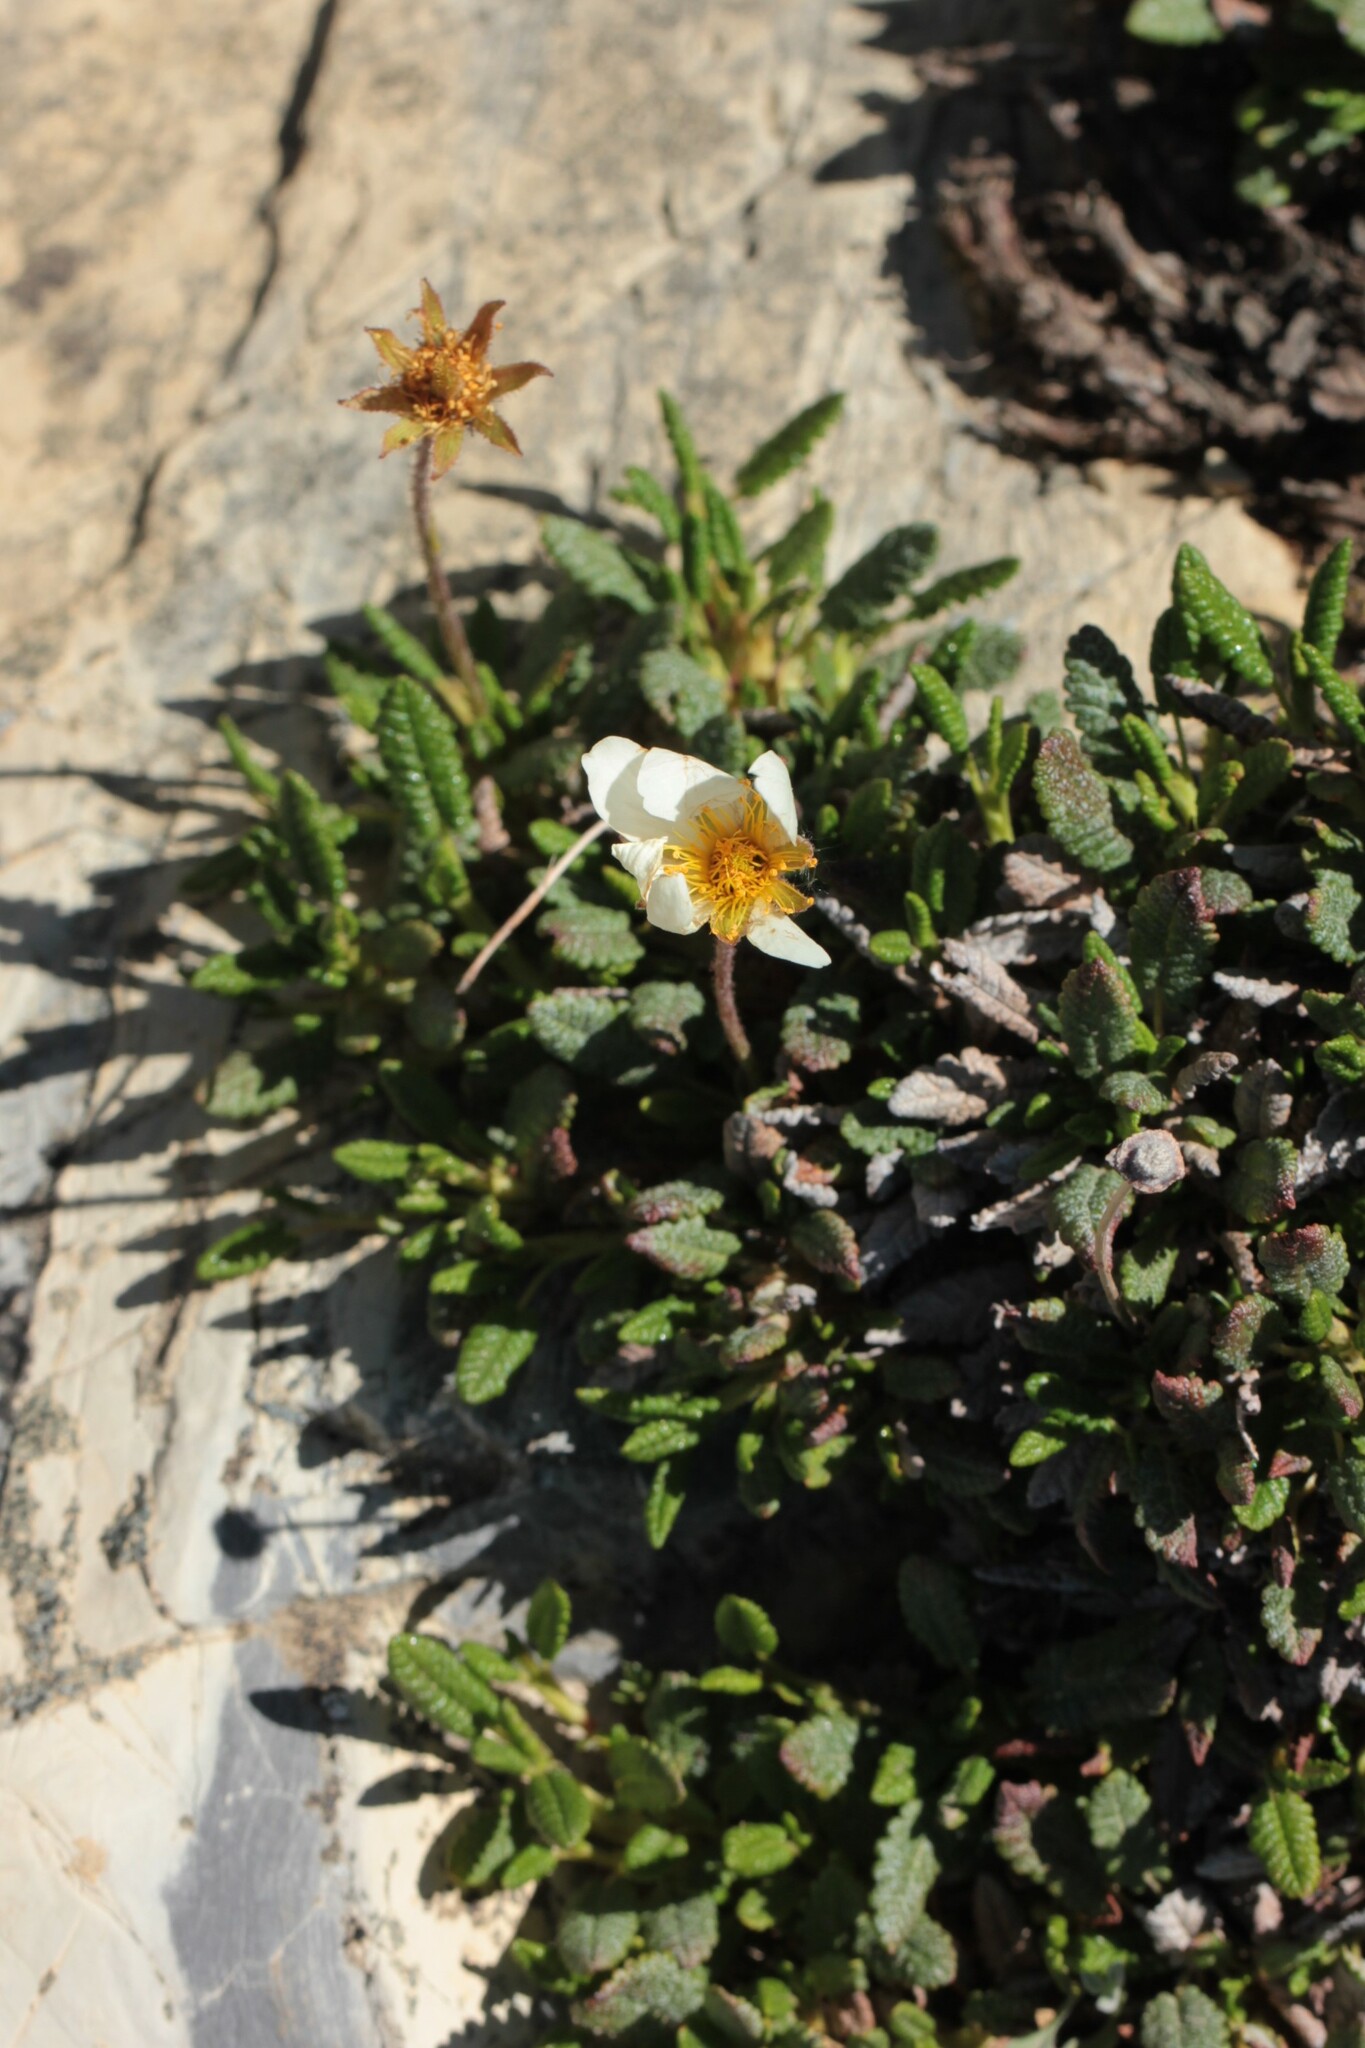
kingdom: Plantae
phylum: Tracheophyta
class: Magnoliopsida
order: Rosales
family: Rosaceae
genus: Dryas
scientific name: Dryas octopetala
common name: Eight-petal mountain-avens
